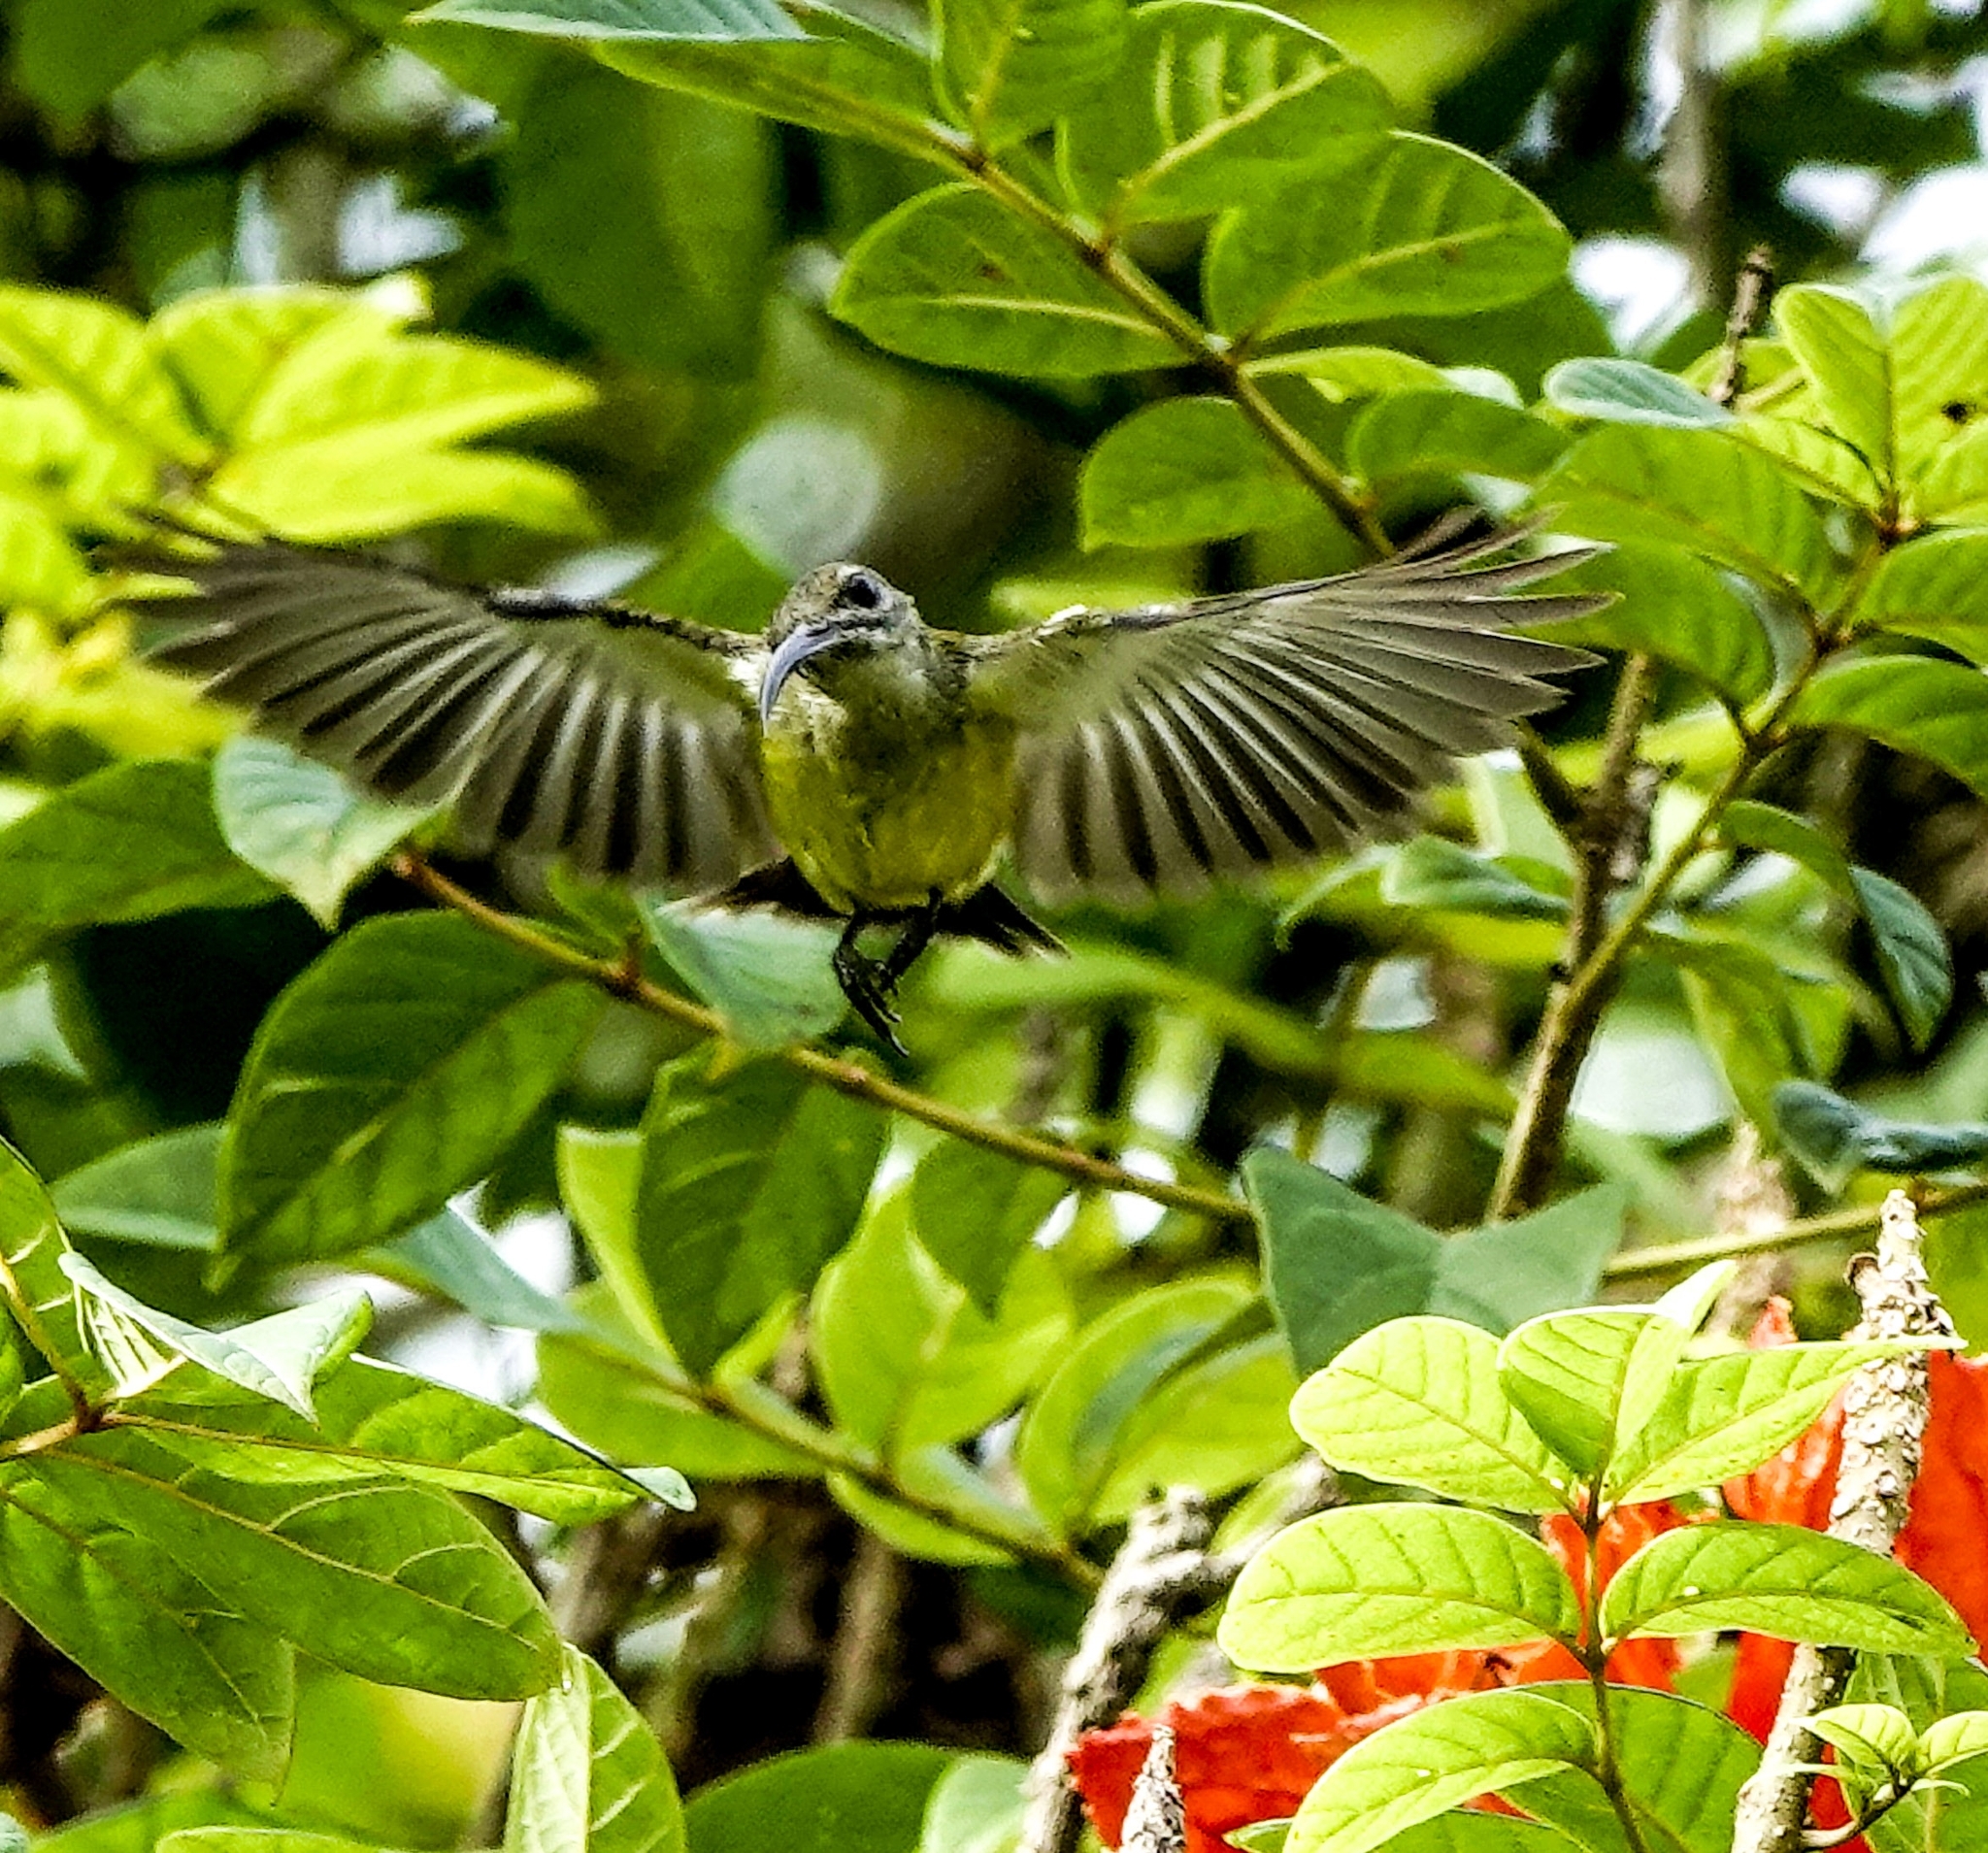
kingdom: Animalia
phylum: Chordata
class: Aves
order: Passeriformes
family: Nectariniidae
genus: Arachnothera
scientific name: Arachnothera longirostra
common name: Little spiderhunter
